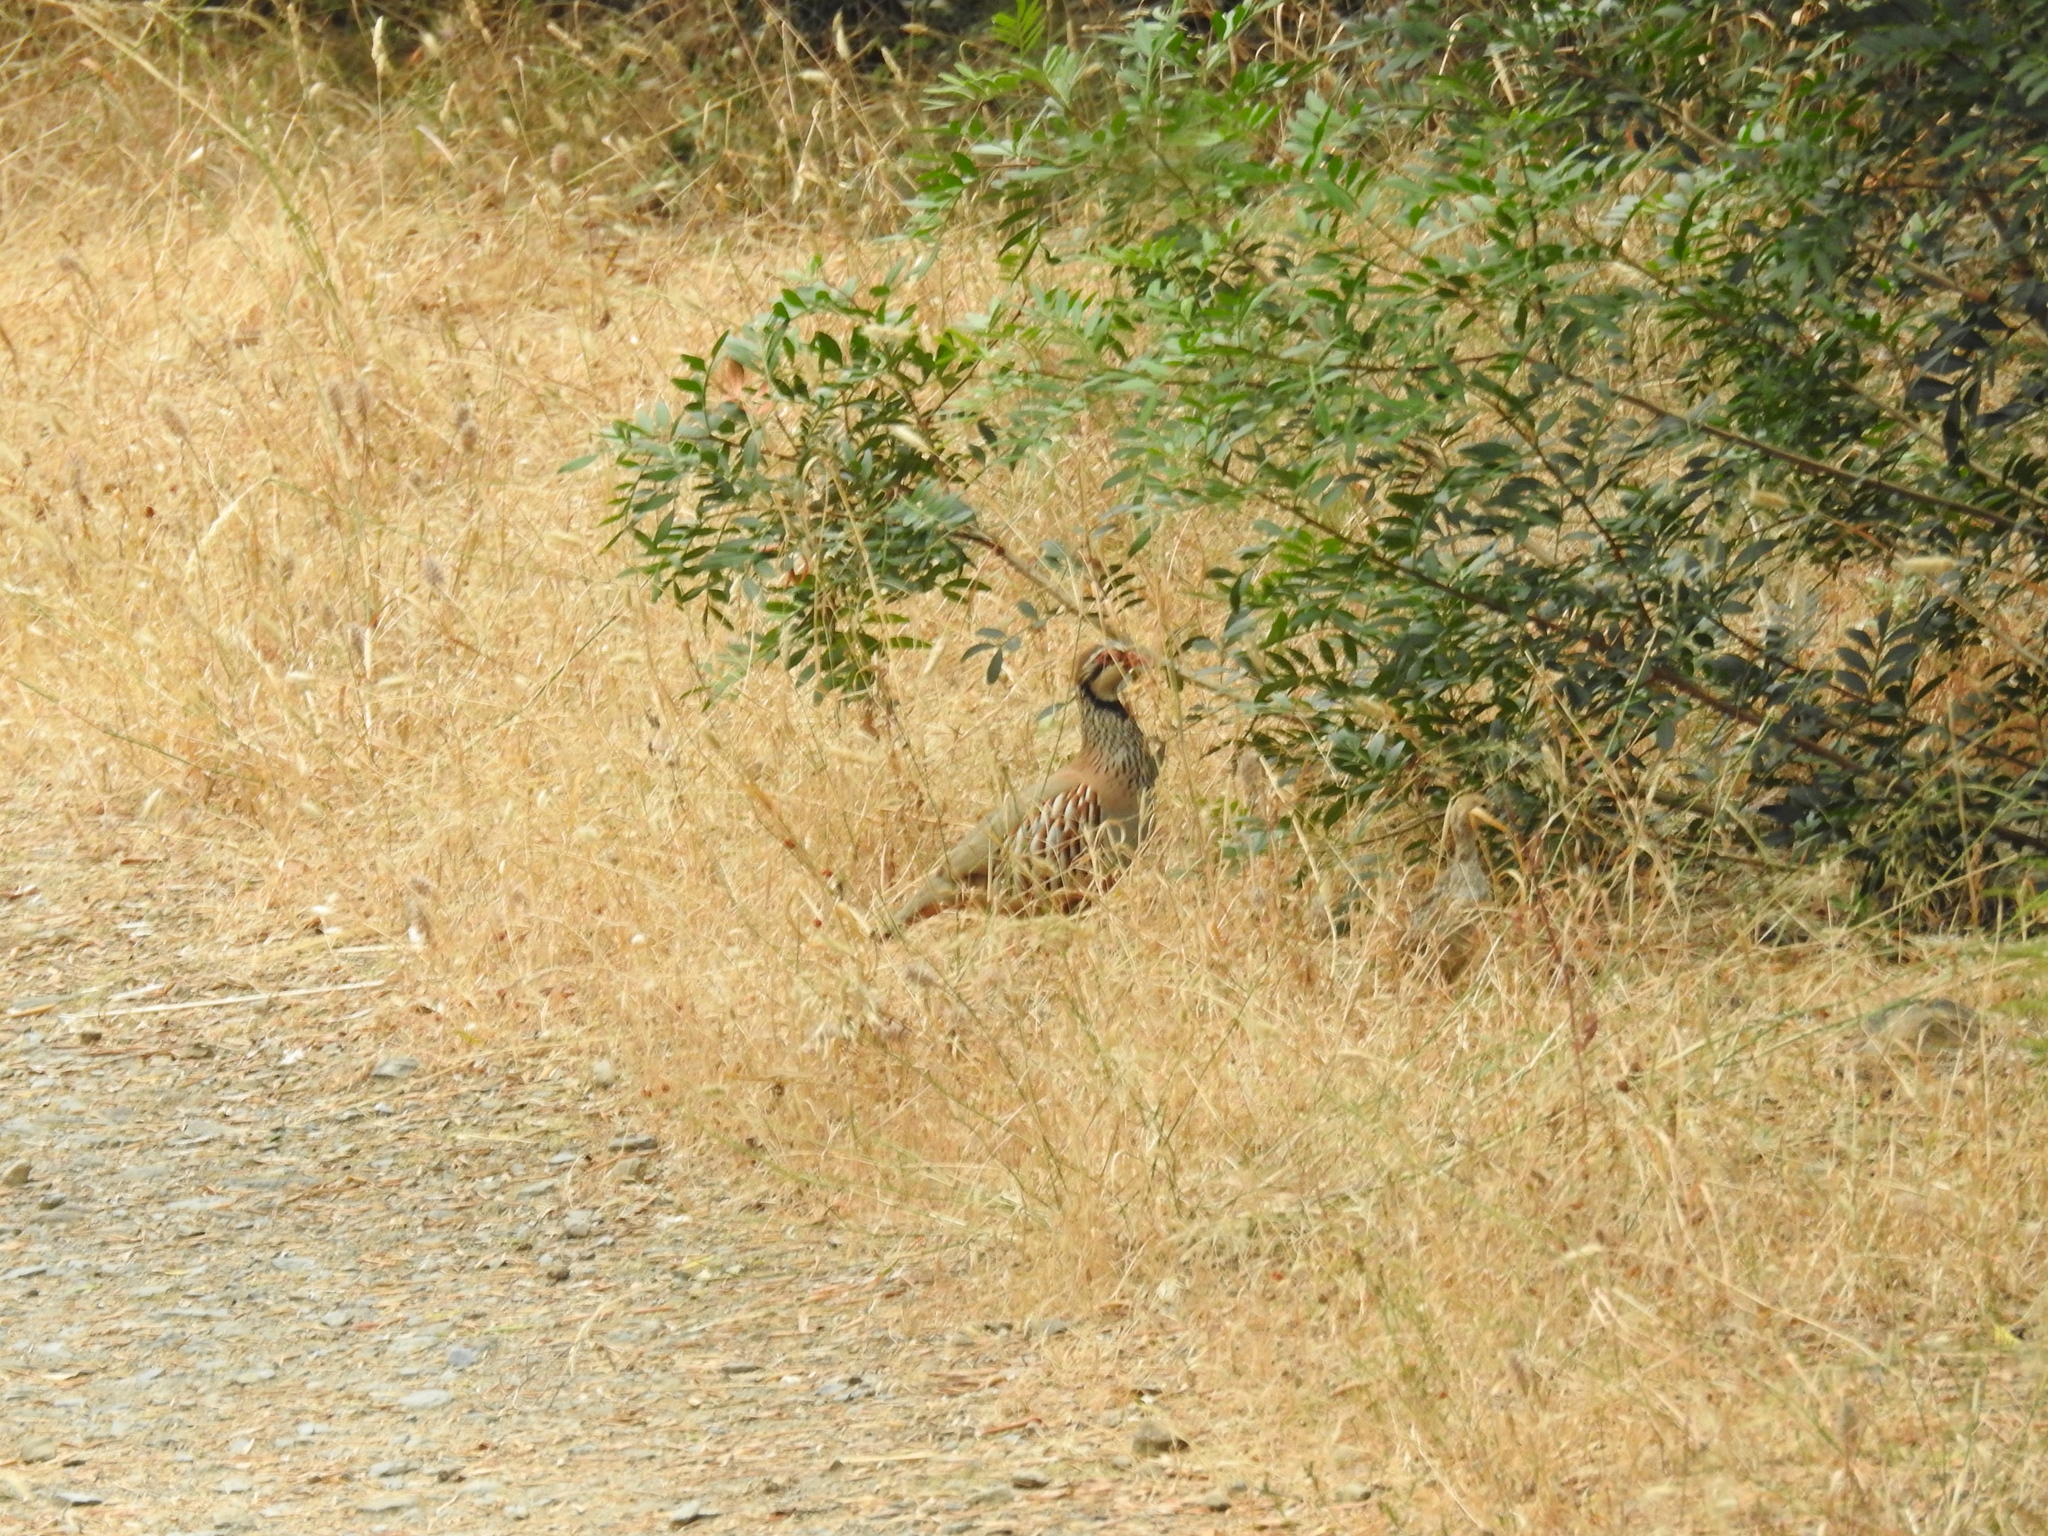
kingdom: Animalia
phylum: Chordata
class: Aves
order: Galliformes
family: Phasianidae
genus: Alectoris
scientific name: Alectoris rufa
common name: Red-legged partridge
